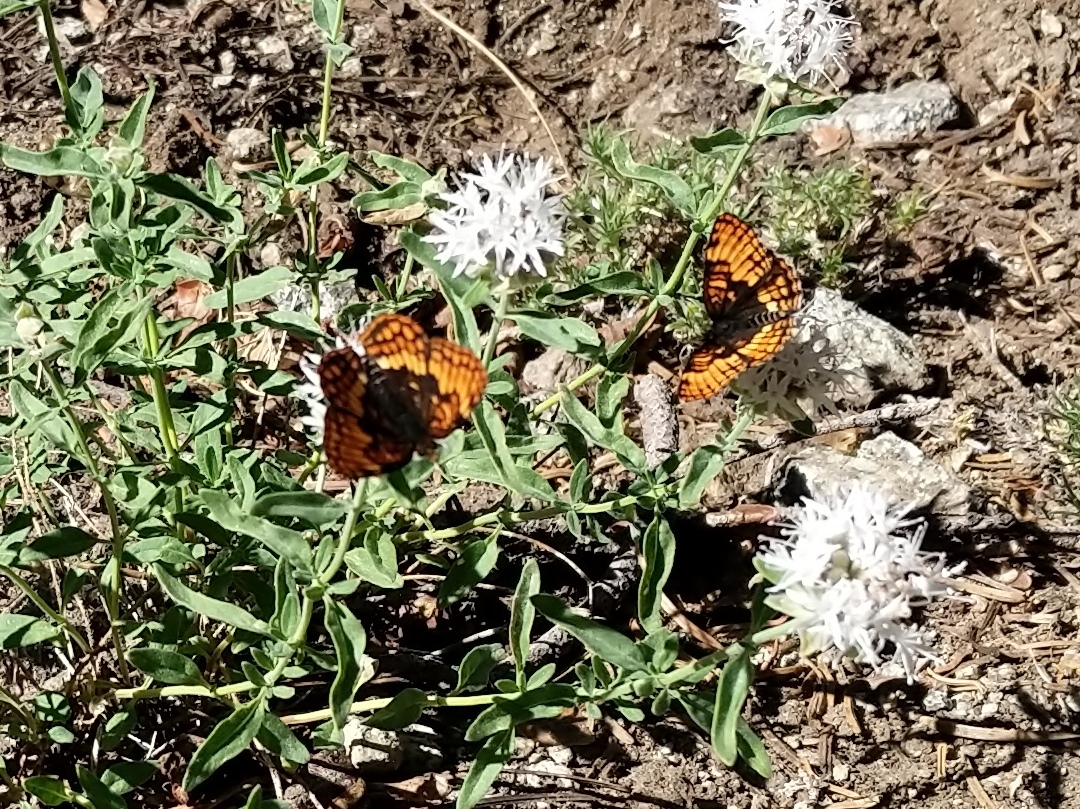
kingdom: Animalia
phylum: Arthropoda
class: Insecta
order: Lepidoptera
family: Nymphalidae
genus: Chlosyne
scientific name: Chlosyne hoffmanni
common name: Hoffmann's checkerspot
